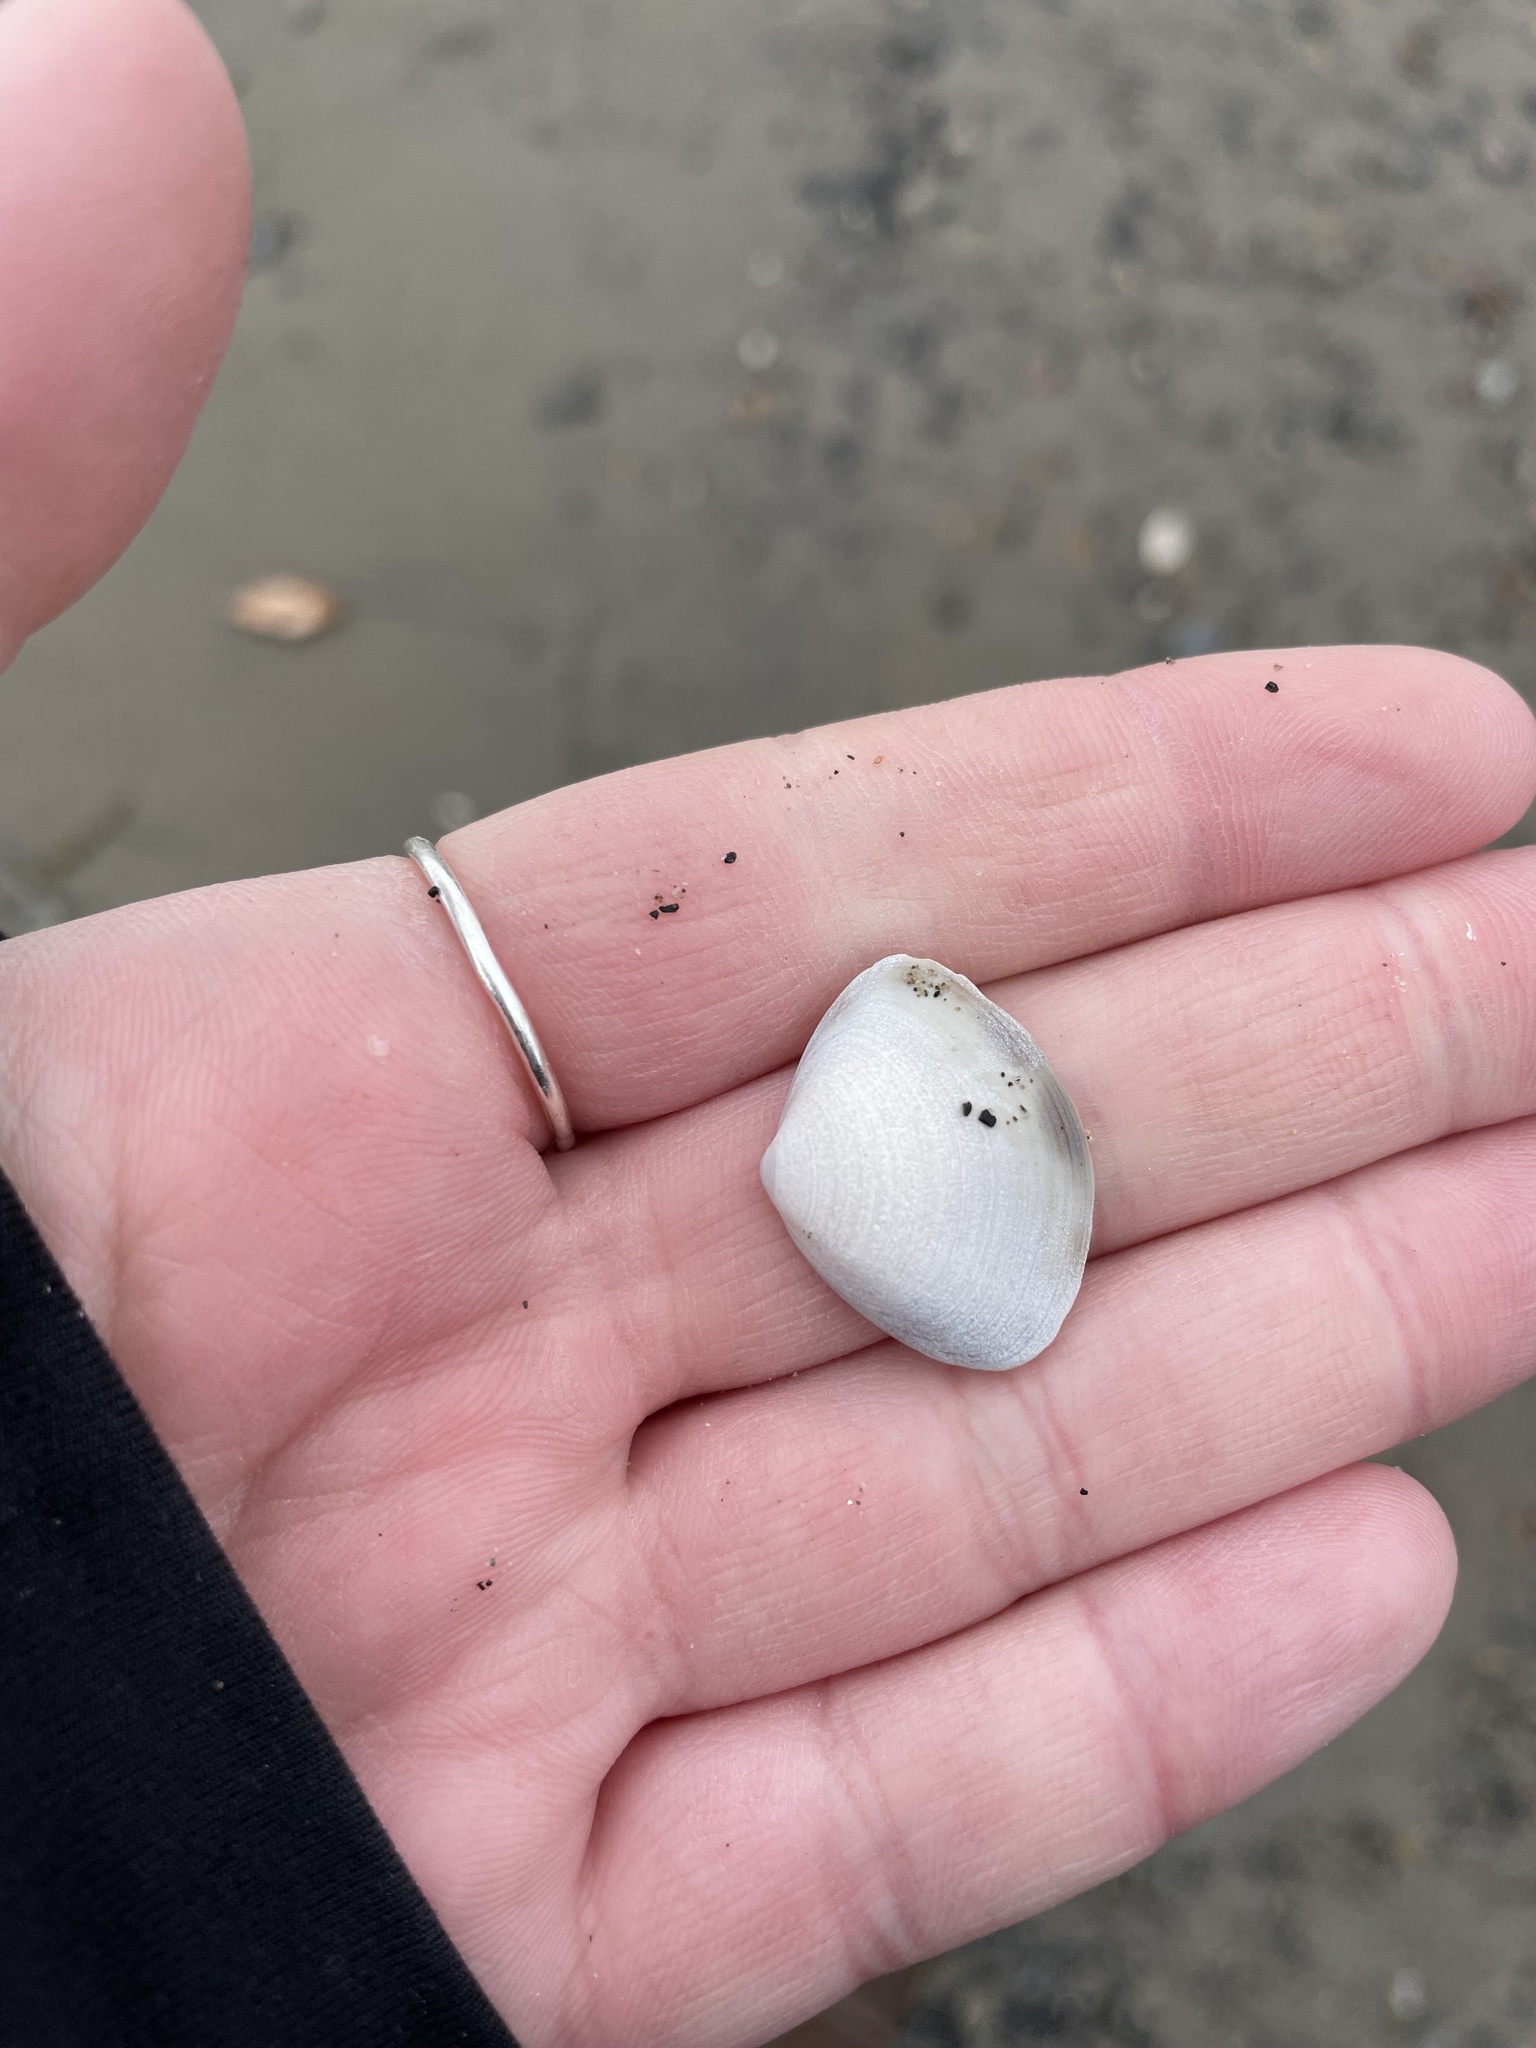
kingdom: Animalia
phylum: Mollusca
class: Bivalvia
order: Venerida
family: Mactridae
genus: Spisula
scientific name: Spisula solidissima
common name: Atlantic surf clam
